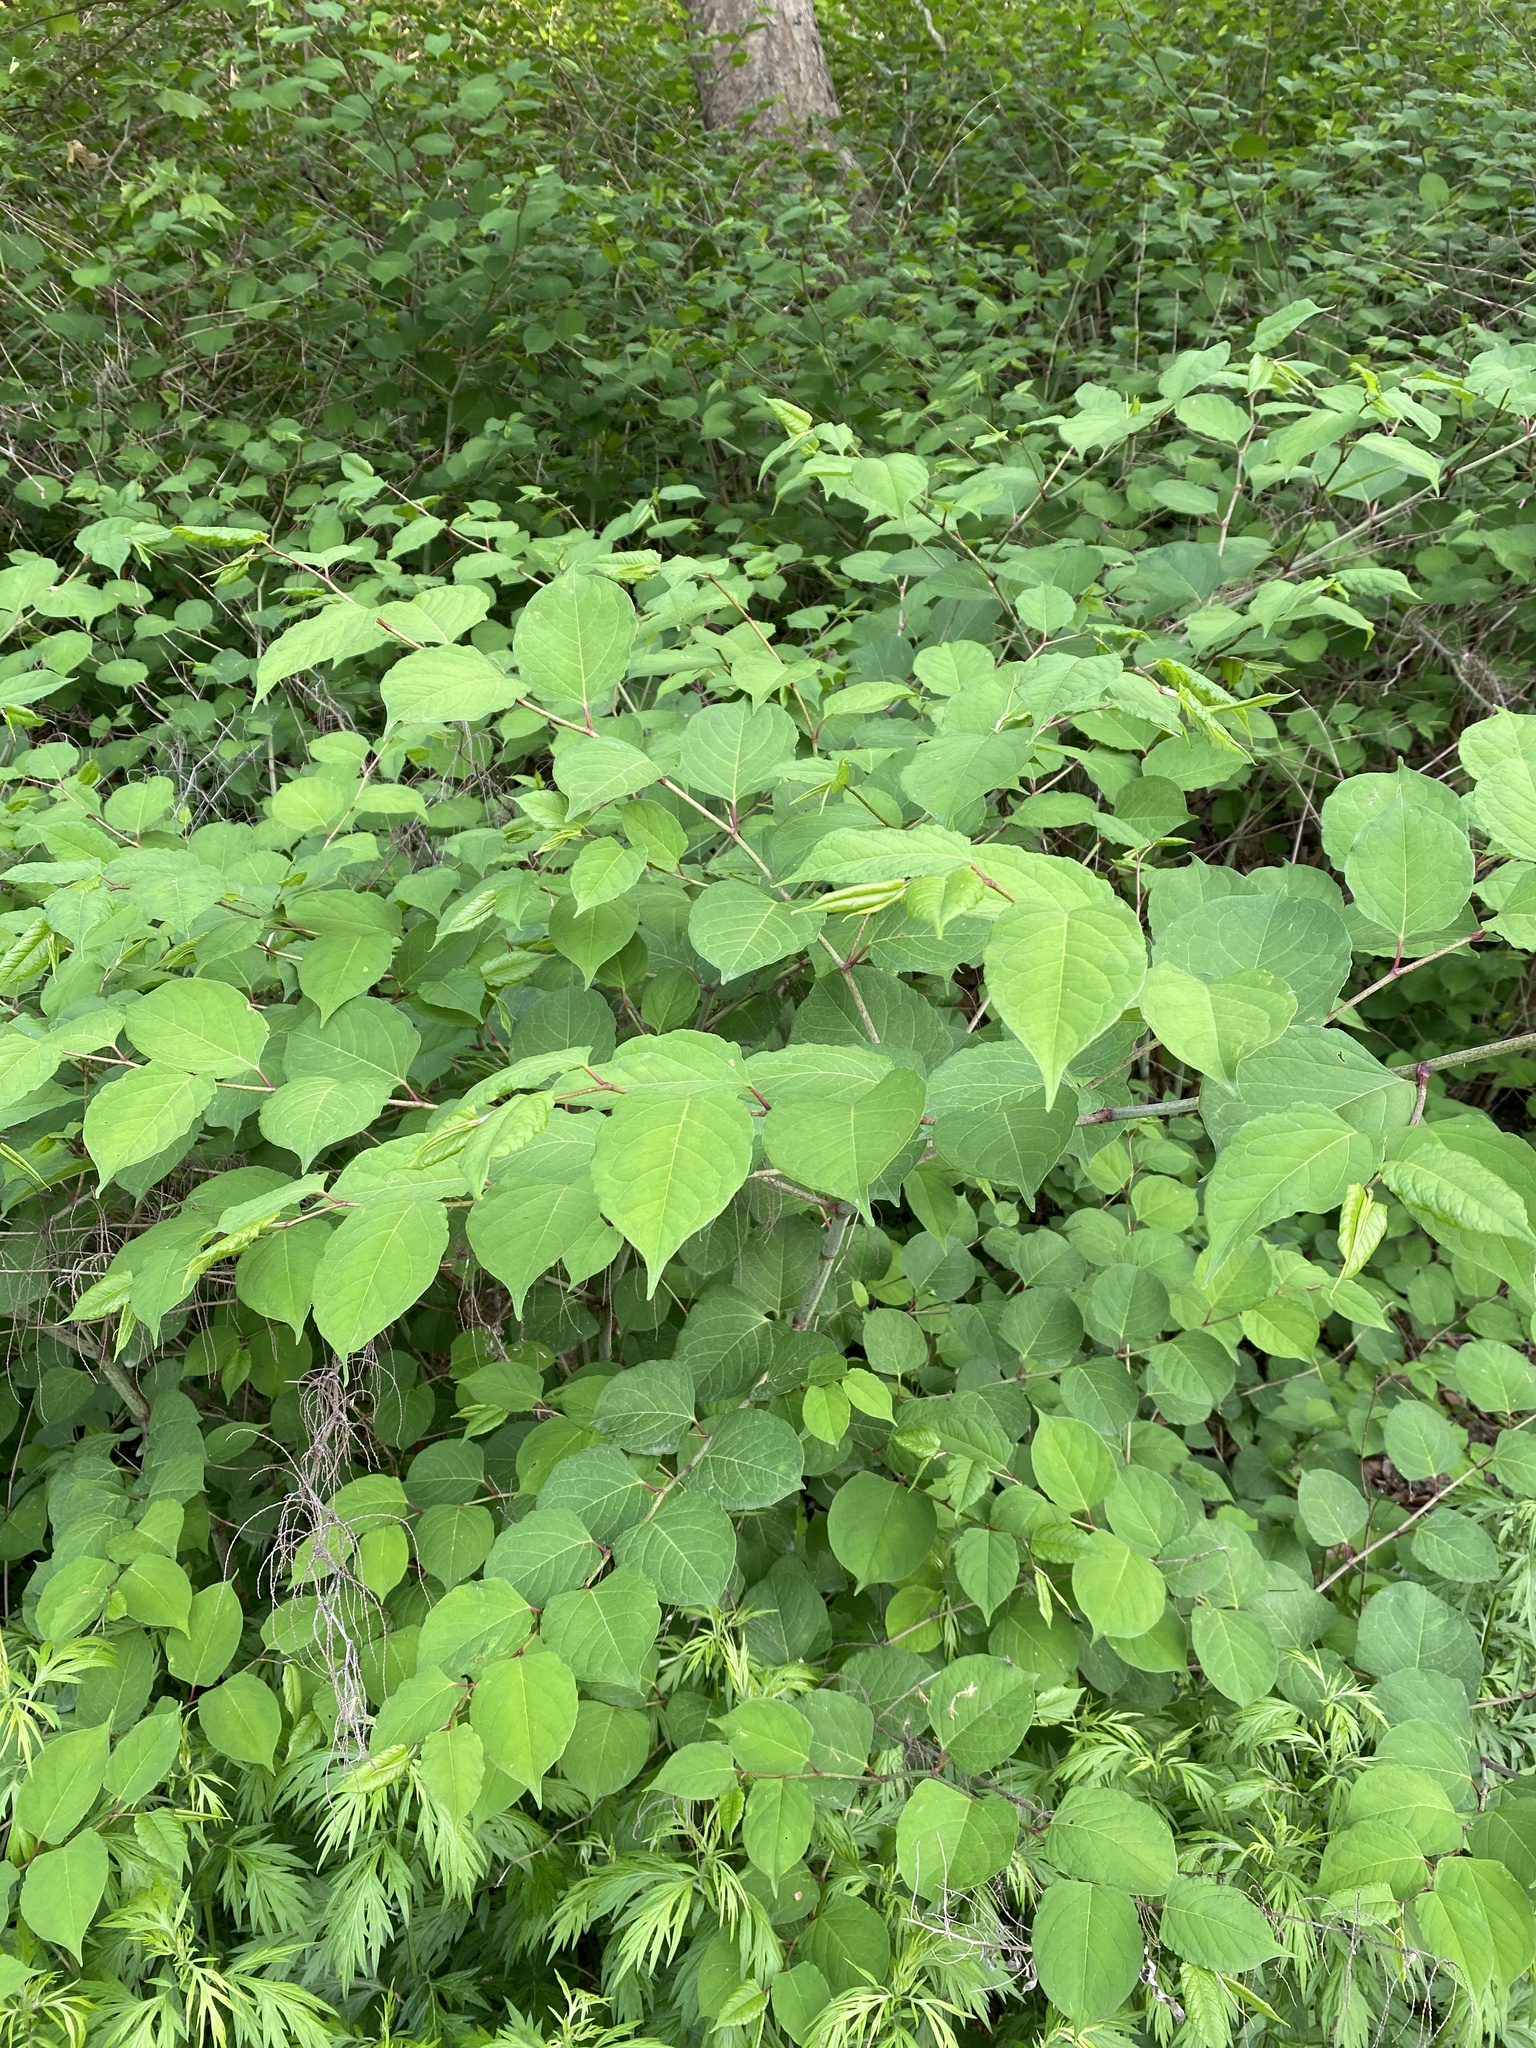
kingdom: Plantae
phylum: Tracheophyta
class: Magnoliopsida
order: Caryophyllales
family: Polygonaceae
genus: Reynoutria
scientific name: Reynoutria japonica
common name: Japanese knotweed
